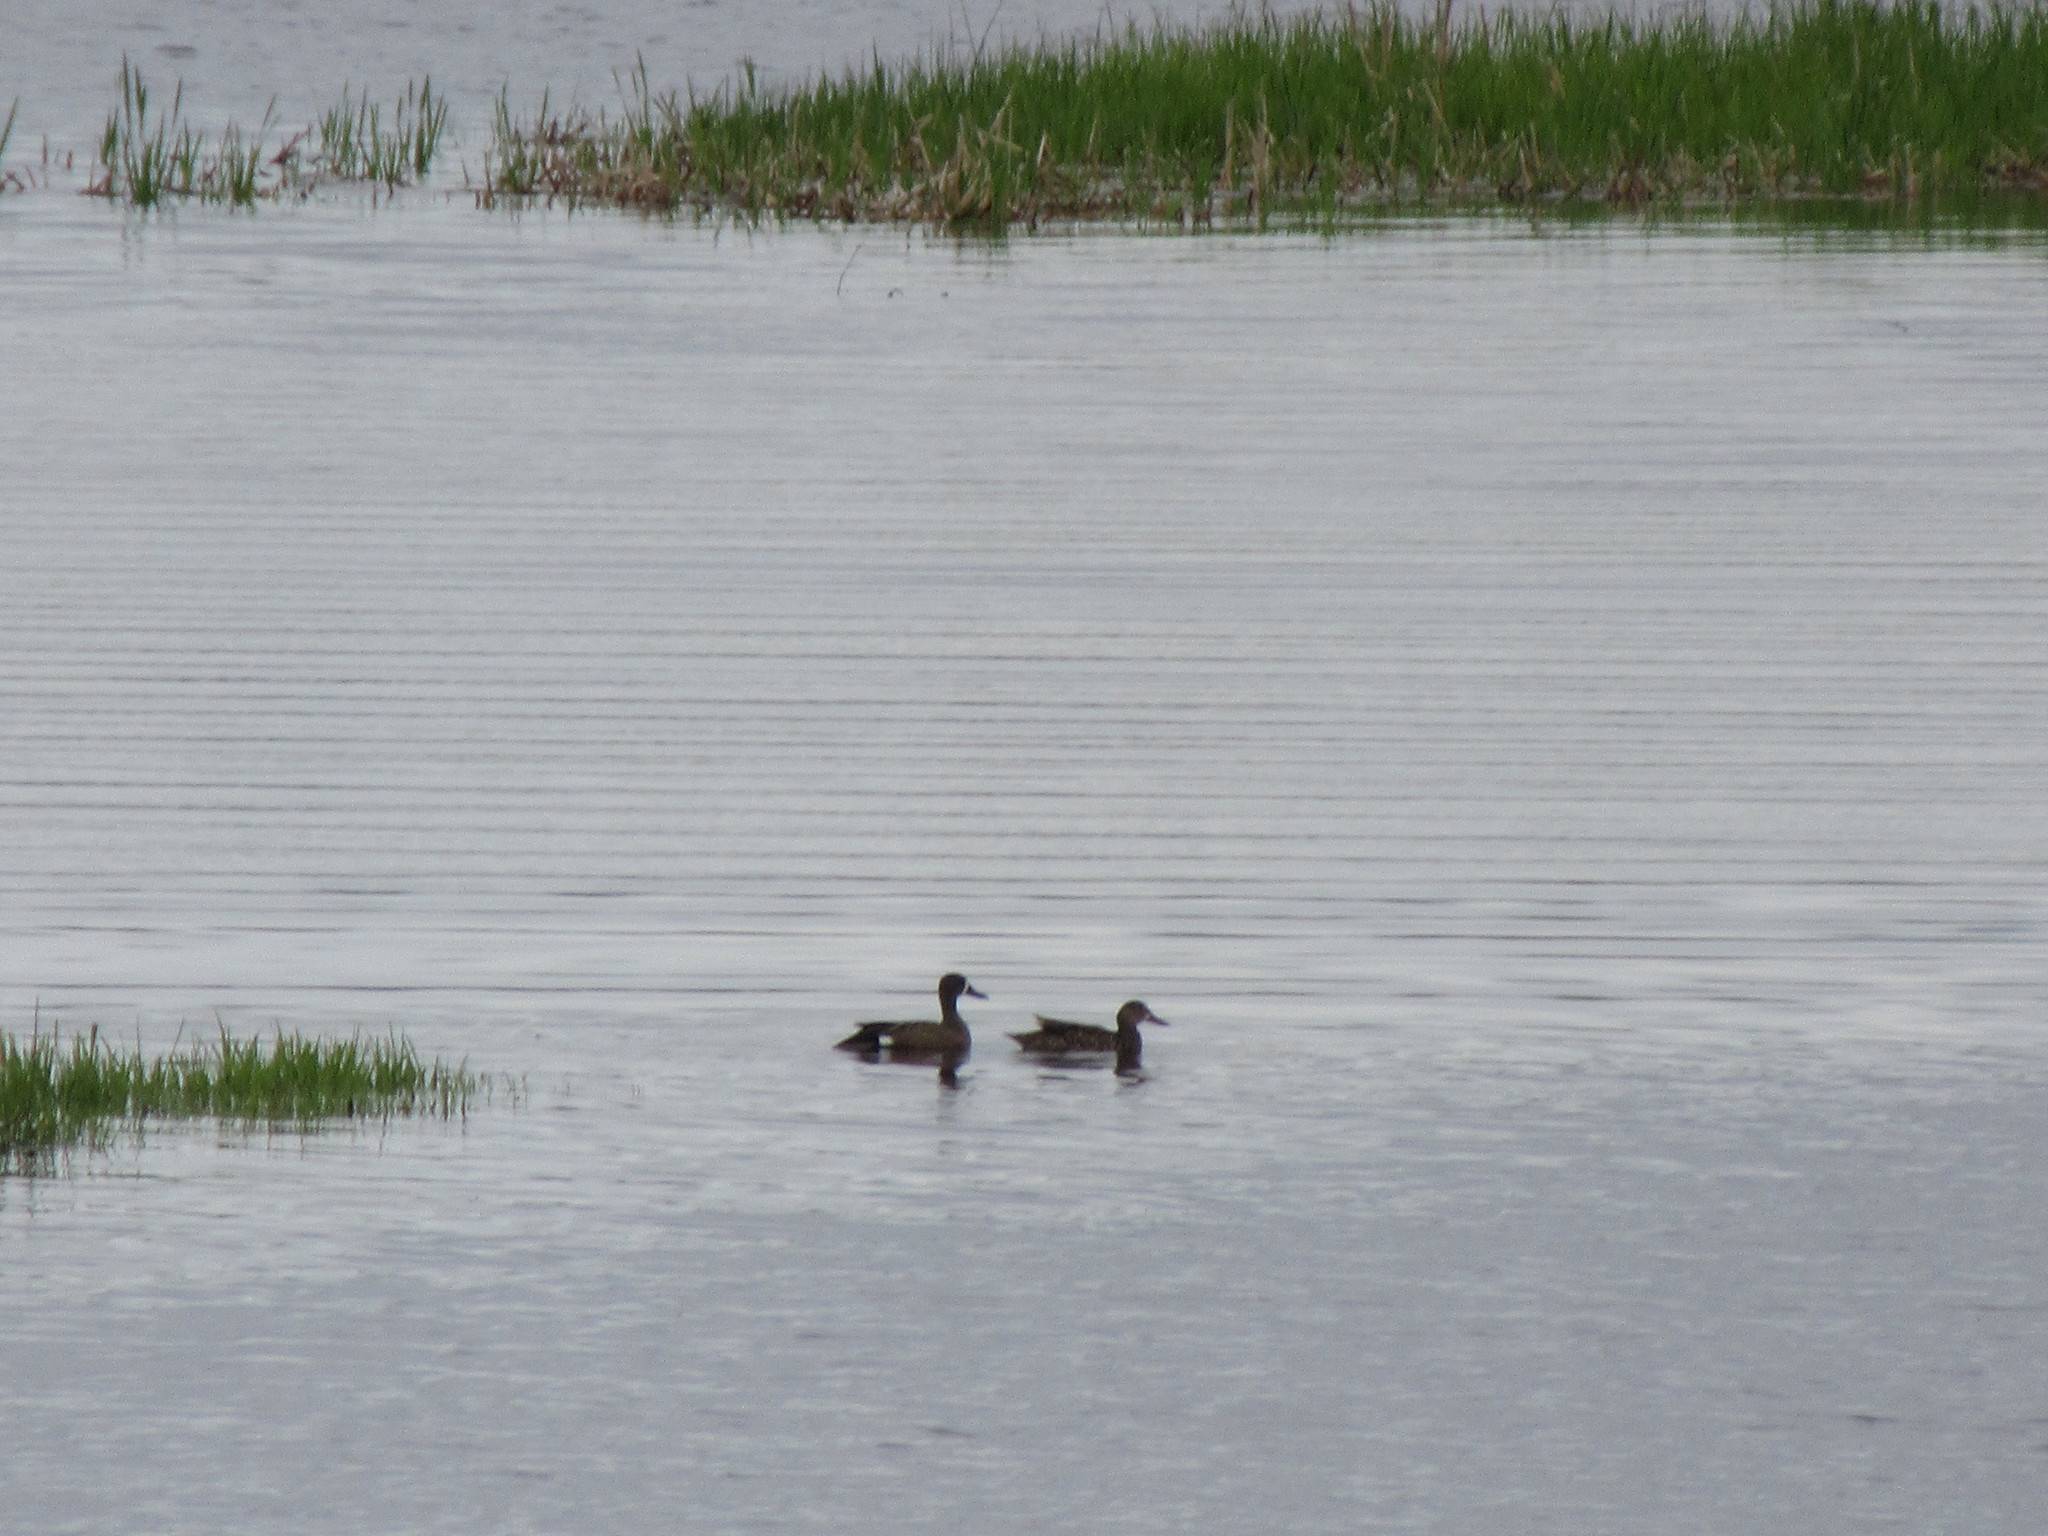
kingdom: Animalia
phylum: Chordata
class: Aves
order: Anseriformes
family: Anatidae
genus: Spatula
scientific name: Spatula discors
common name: Blue-winged teal
